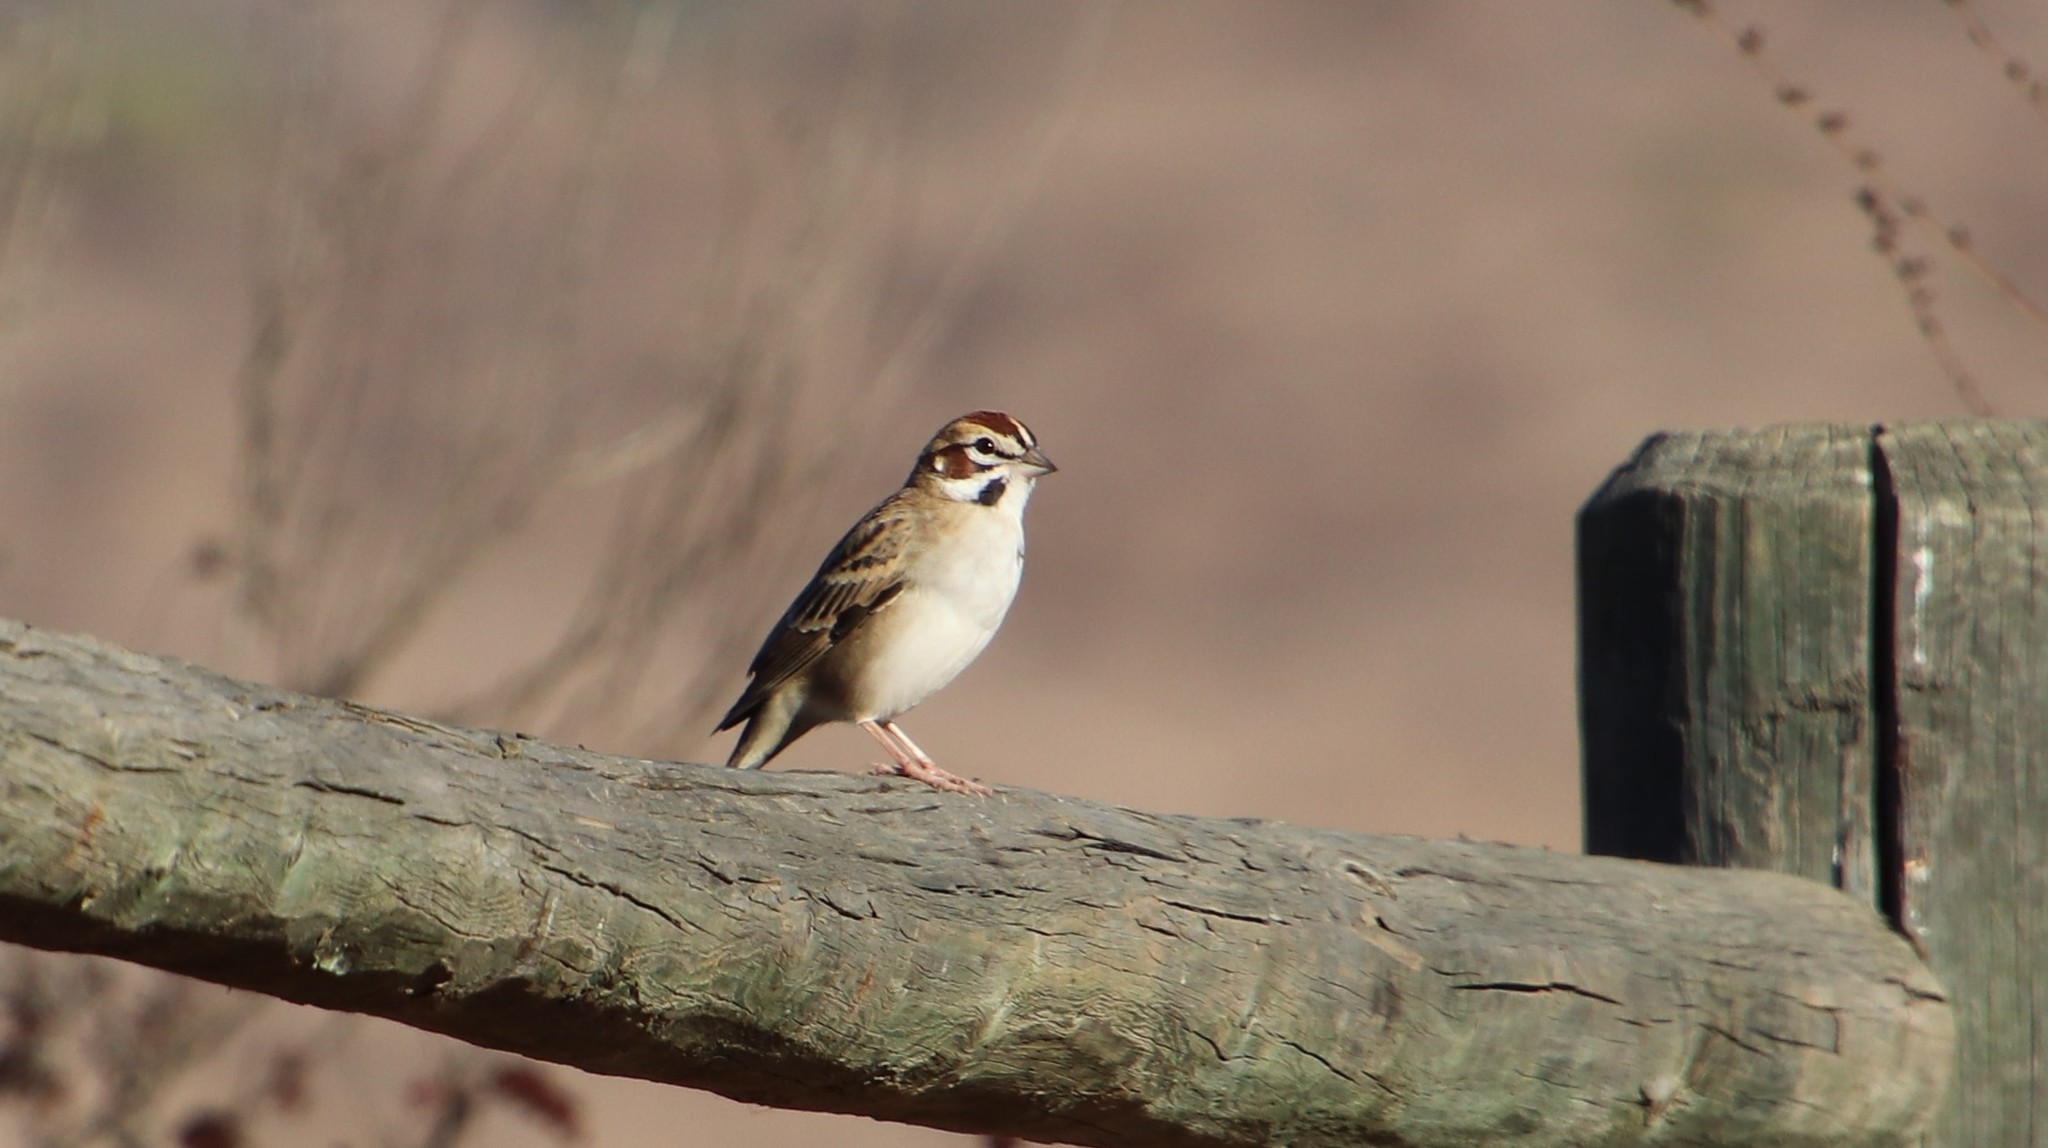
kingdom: Animalia
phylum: Chordata
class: Aves
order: Passeriformes
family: Passerellidae
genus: Chondestes
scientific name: Chondestes grammacus
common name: Lark sparrow
